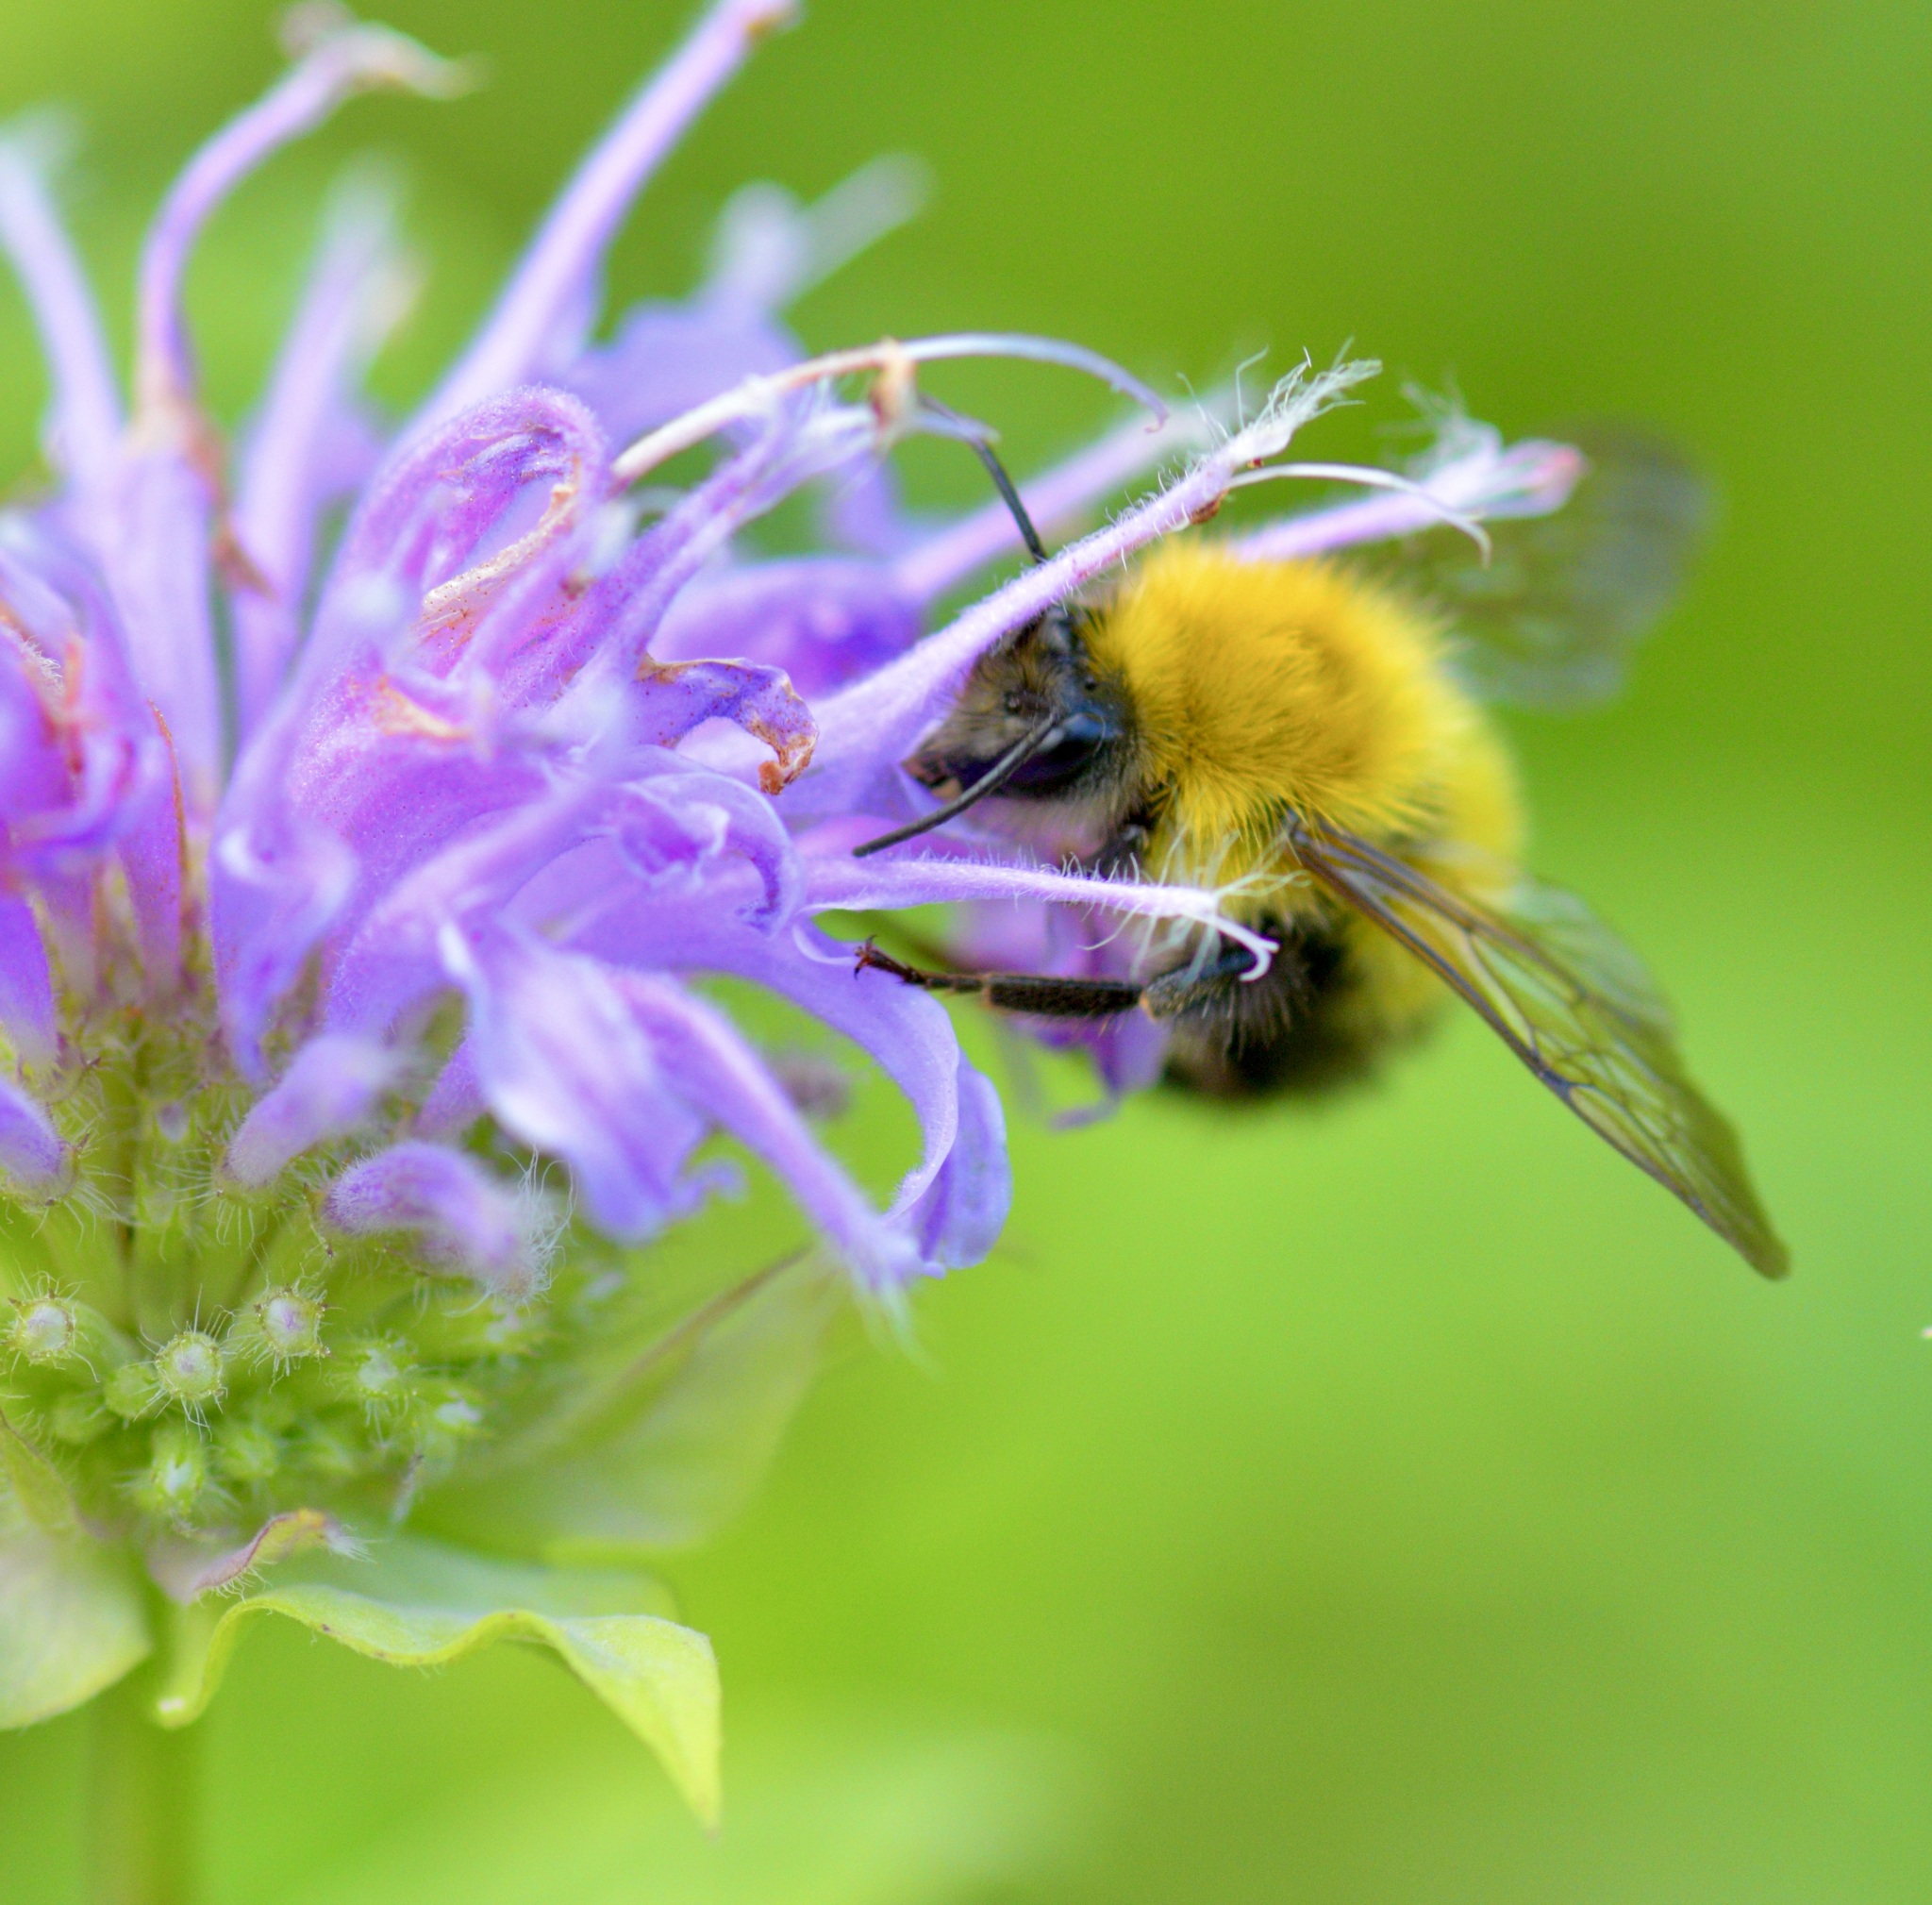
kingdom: Animalia
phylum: Arthropoda
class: Insecta
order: Hymenoptera
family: Apidae
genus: Bombus
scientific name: Bombus perplexus
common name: Confusing bumble bee
